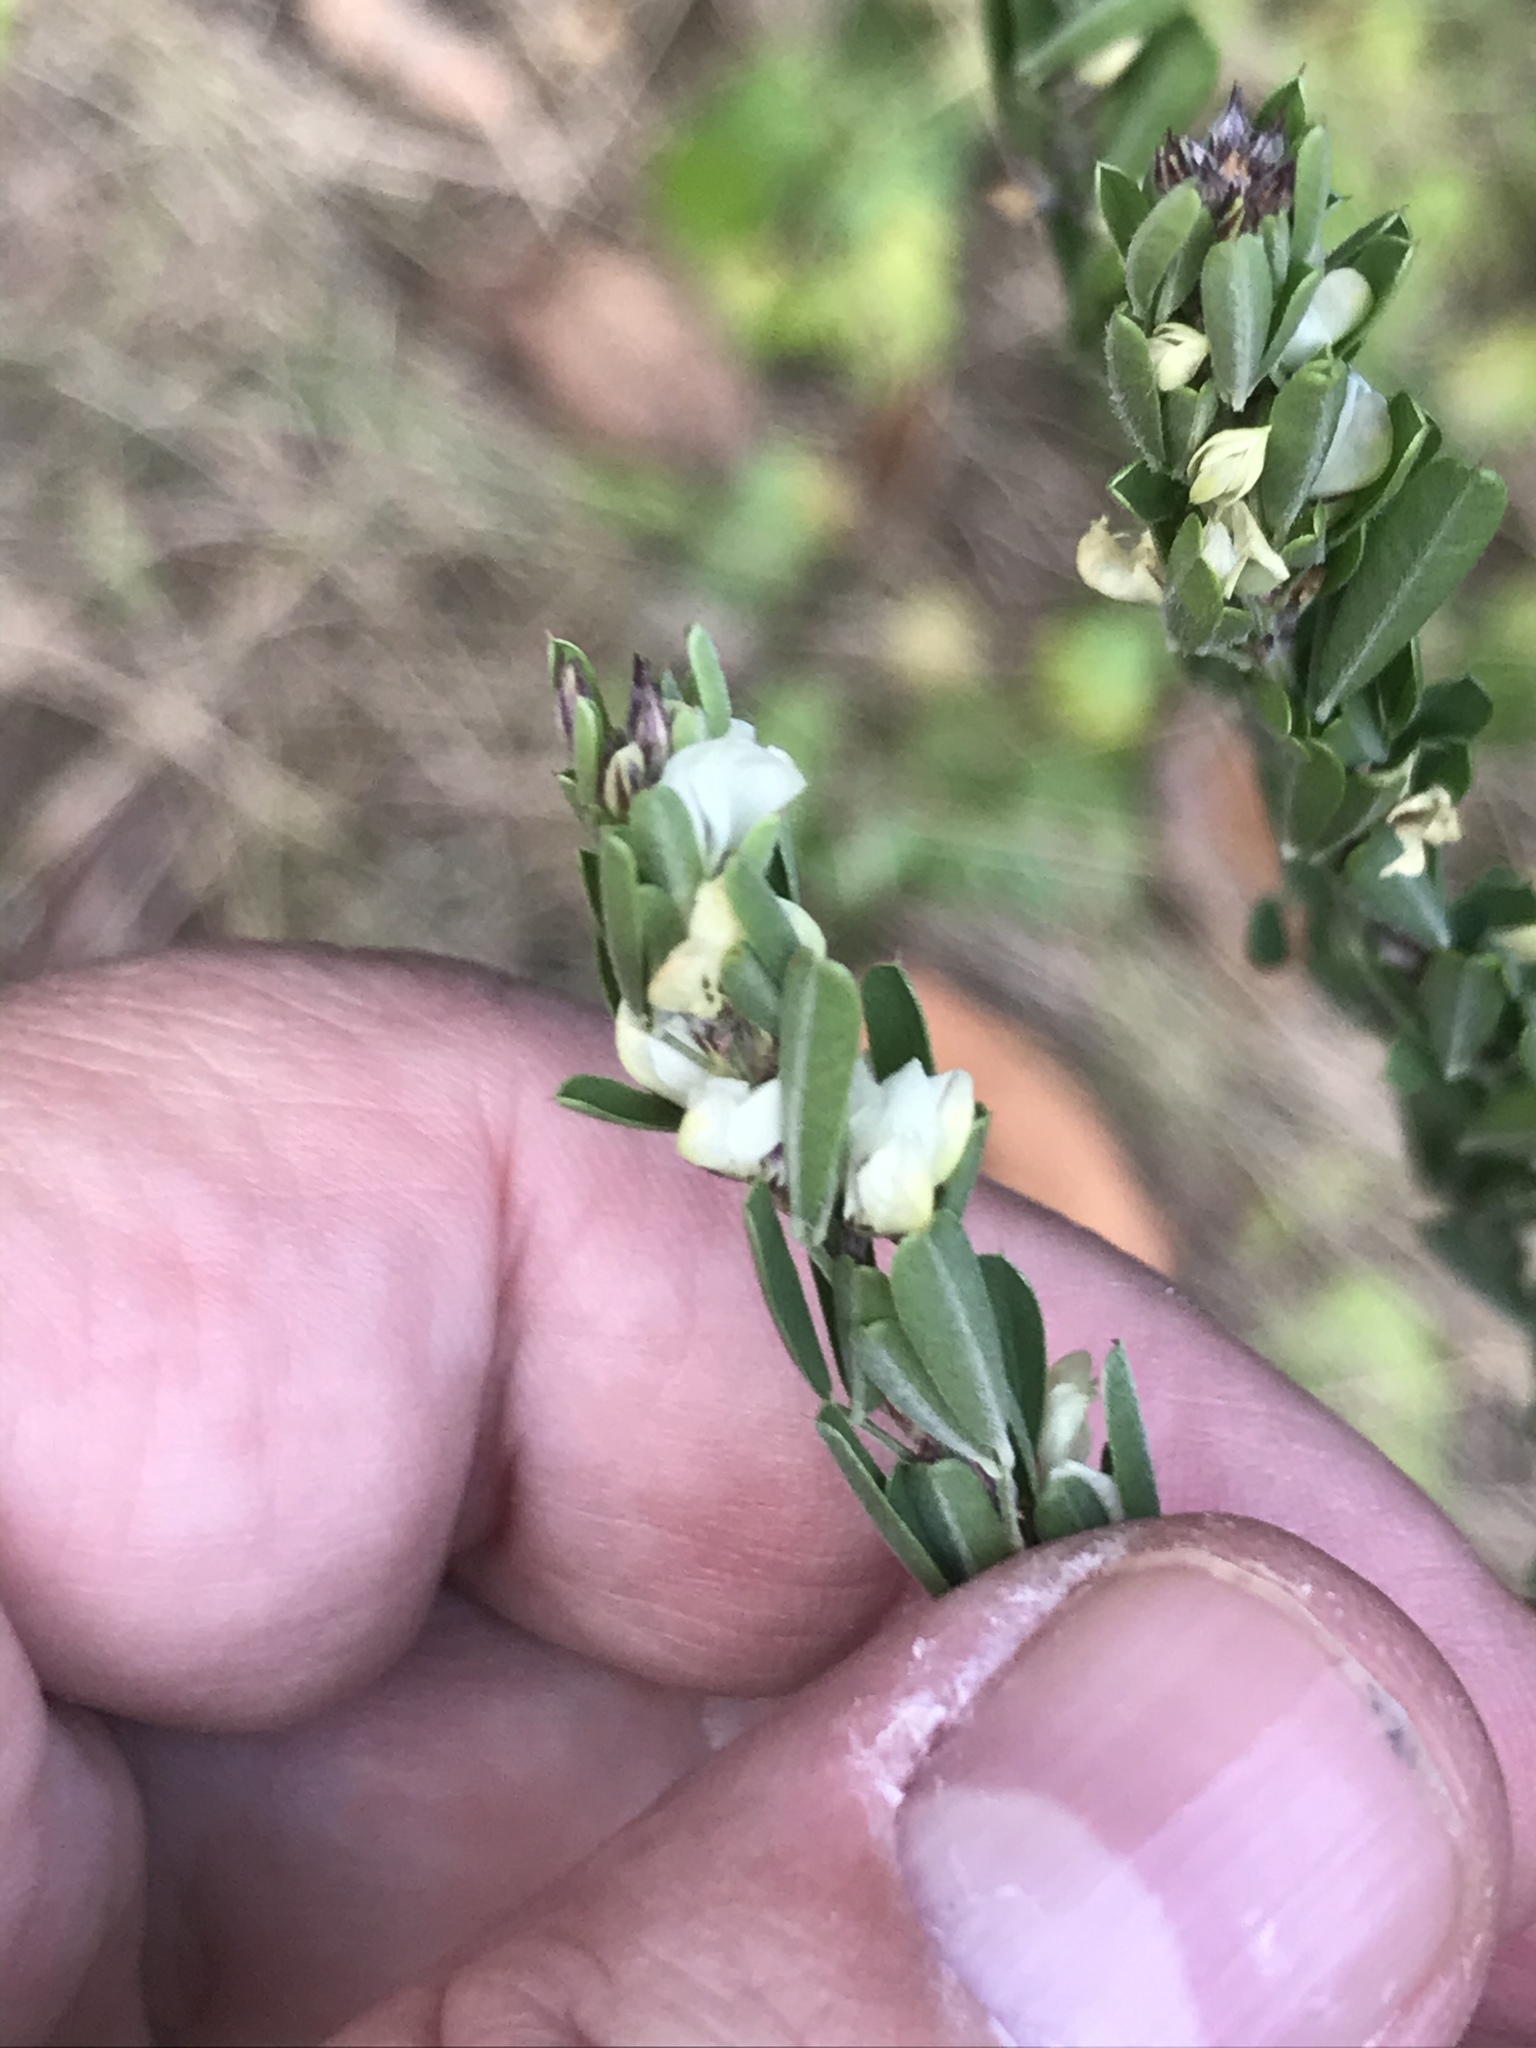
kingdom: Plantae
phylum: Tracheophyta
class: Magnoliopsida
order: Fabales
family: Fabaceae
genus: Lespedeza
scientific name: Lespedeza cuneata
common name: Chinese bush-clover
